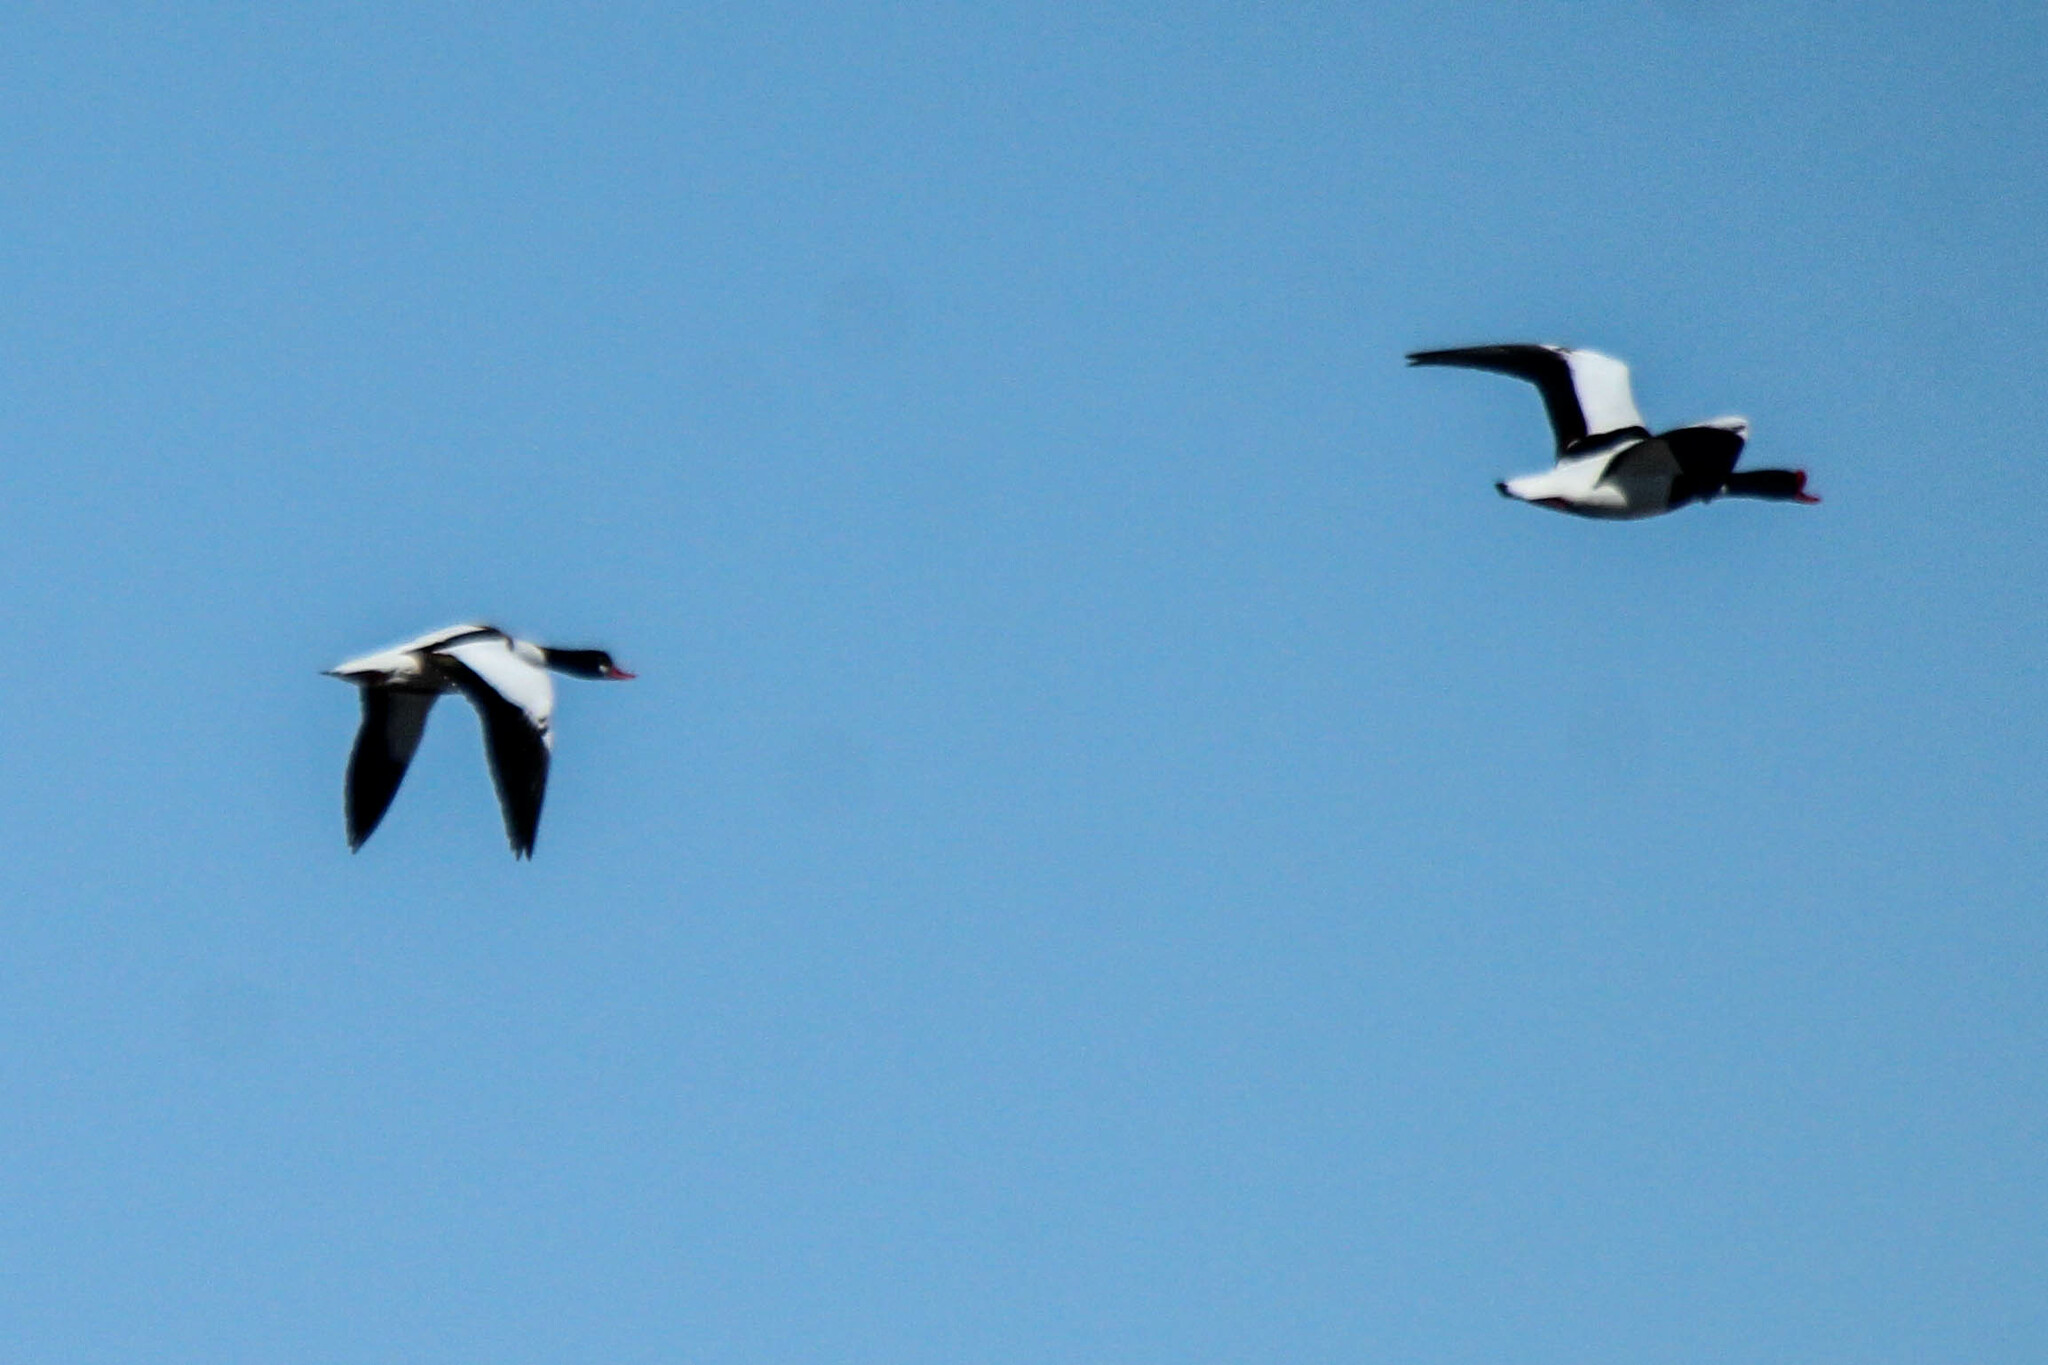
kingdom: Animalia
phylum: Chordata
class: Aves
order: Anseriformes
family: Anatidae
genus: Tadorna
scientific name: Tadorna tadorna
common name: Common shelduck
